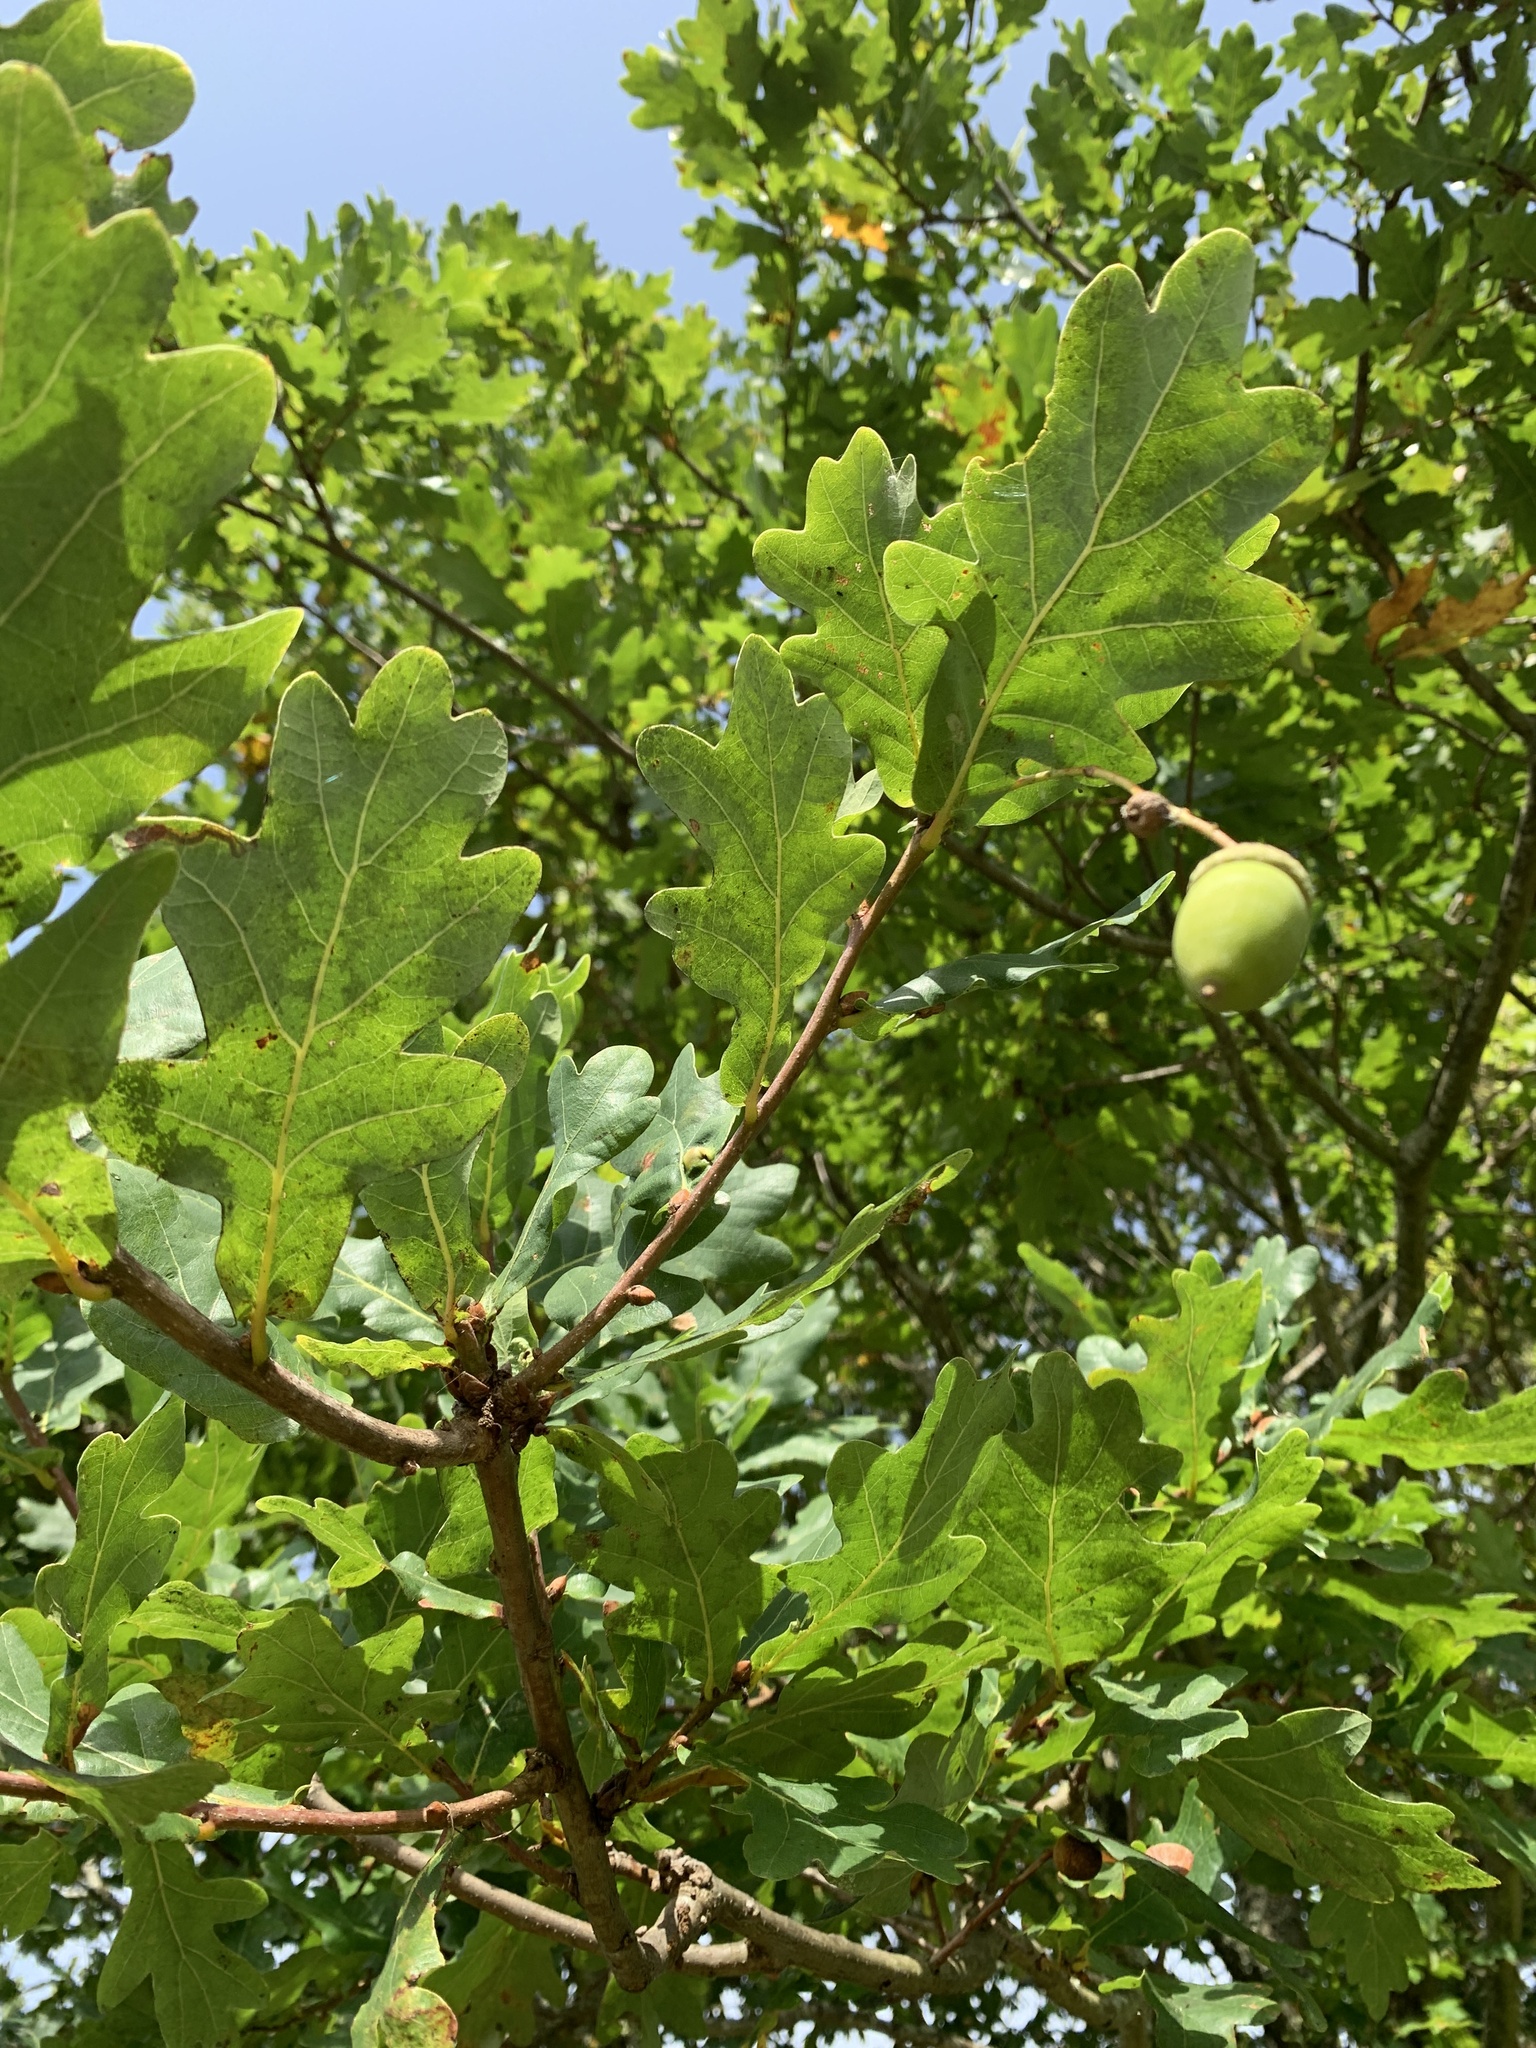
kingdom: Plantae
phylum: Tracheophyta
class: Magnoliopsida
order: Fagales
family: Fagaceae
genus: Quercus
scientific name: Quercus robur
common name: Pedunculate oak
